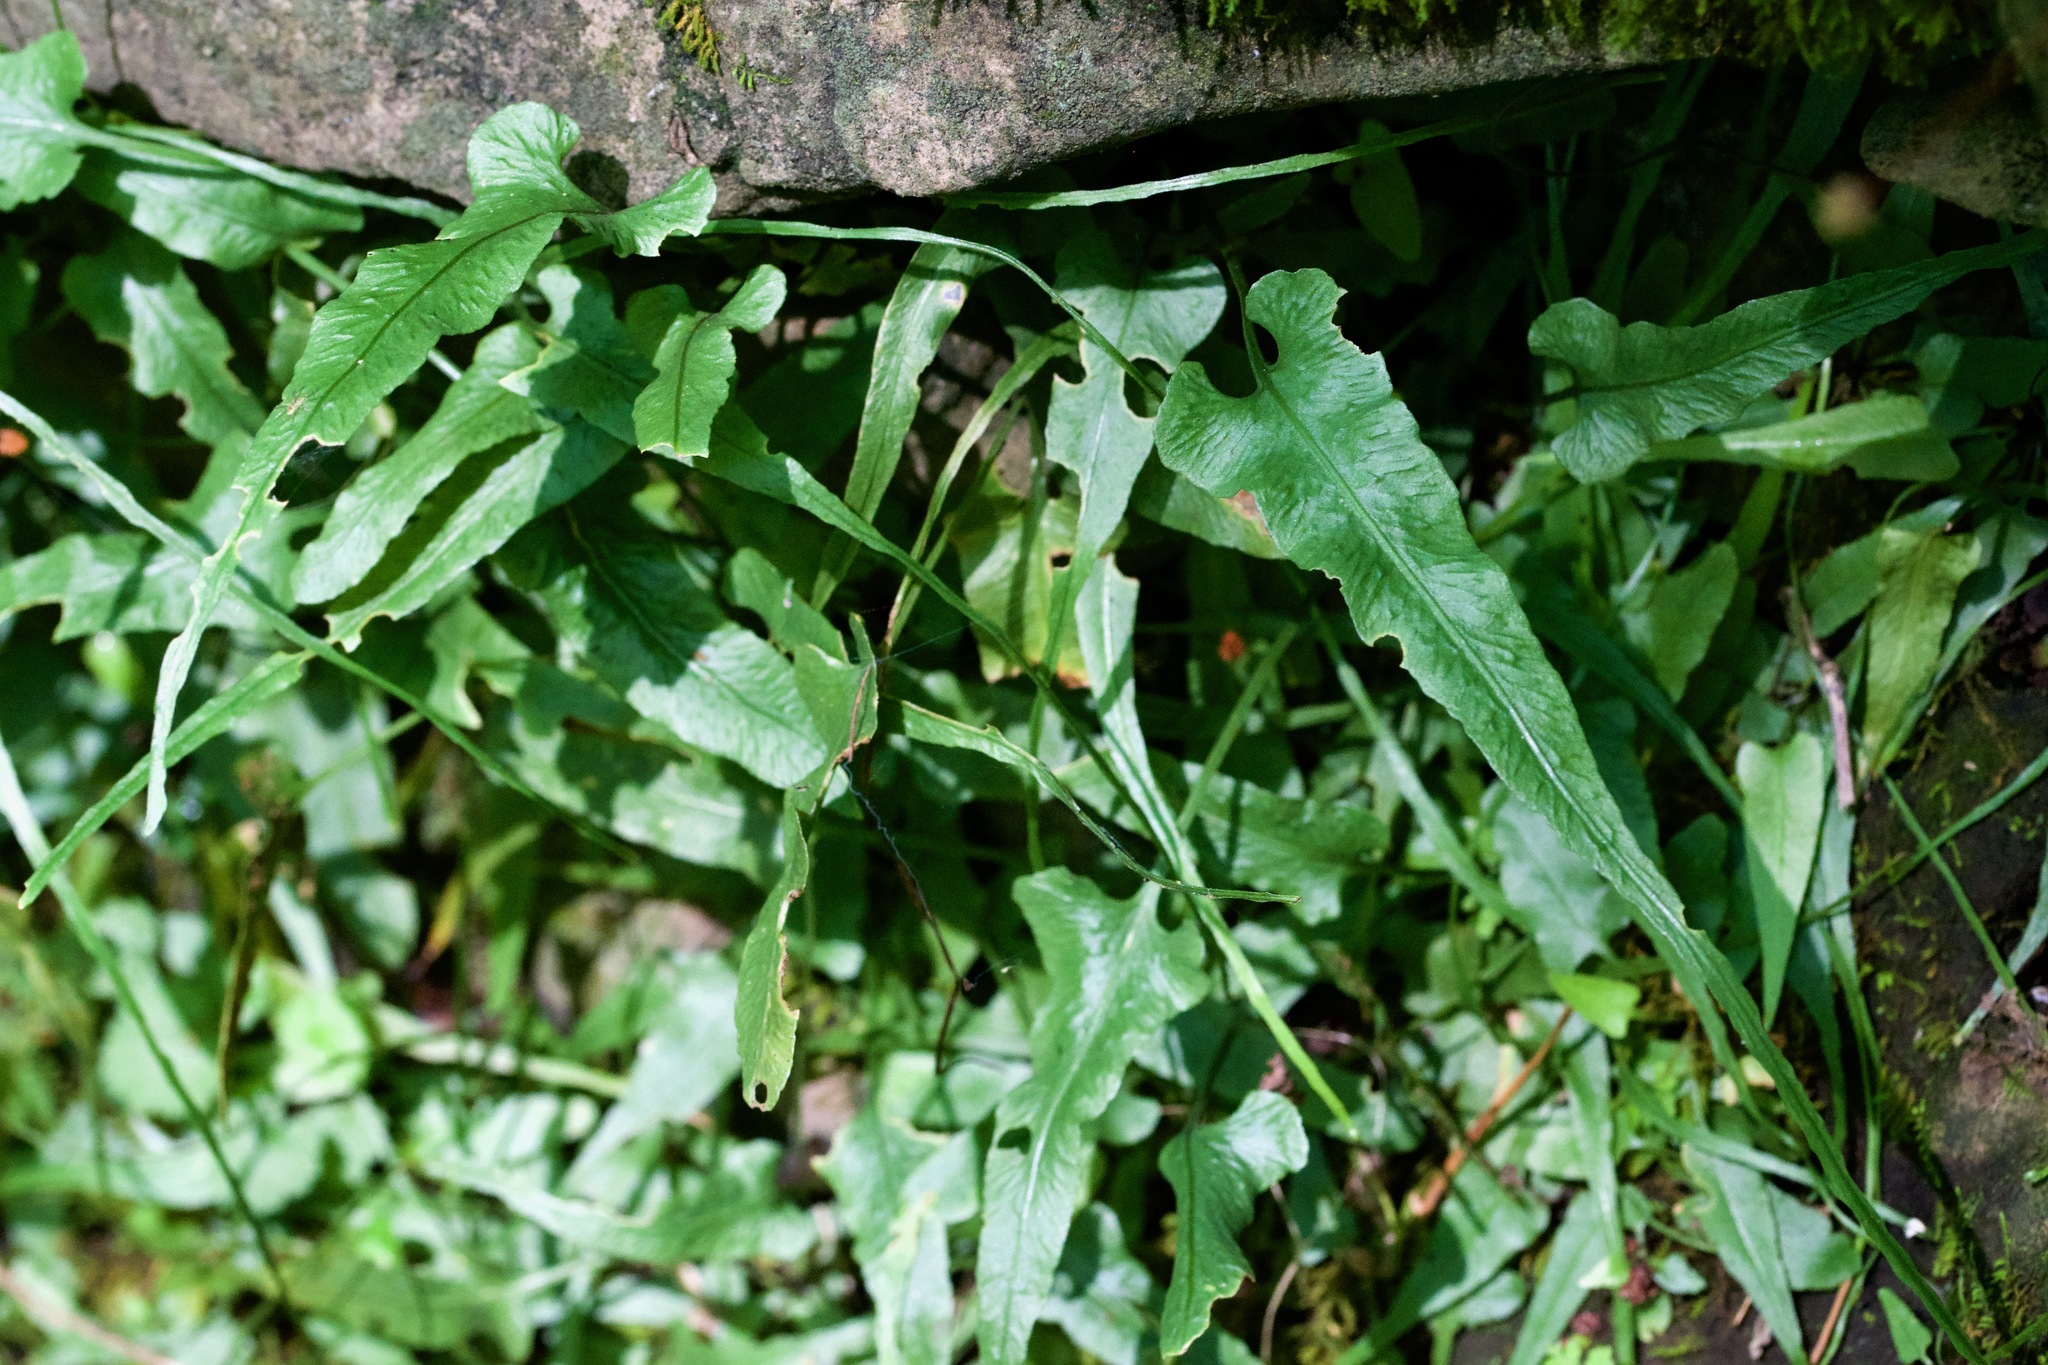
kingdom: Plantae
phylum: Tracheophyta
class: Polypodiopsida
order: Polypodiales
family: Aspleniaceae
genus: Asplenium
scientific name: Asplenium rhizophyllum
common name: Walking fern
